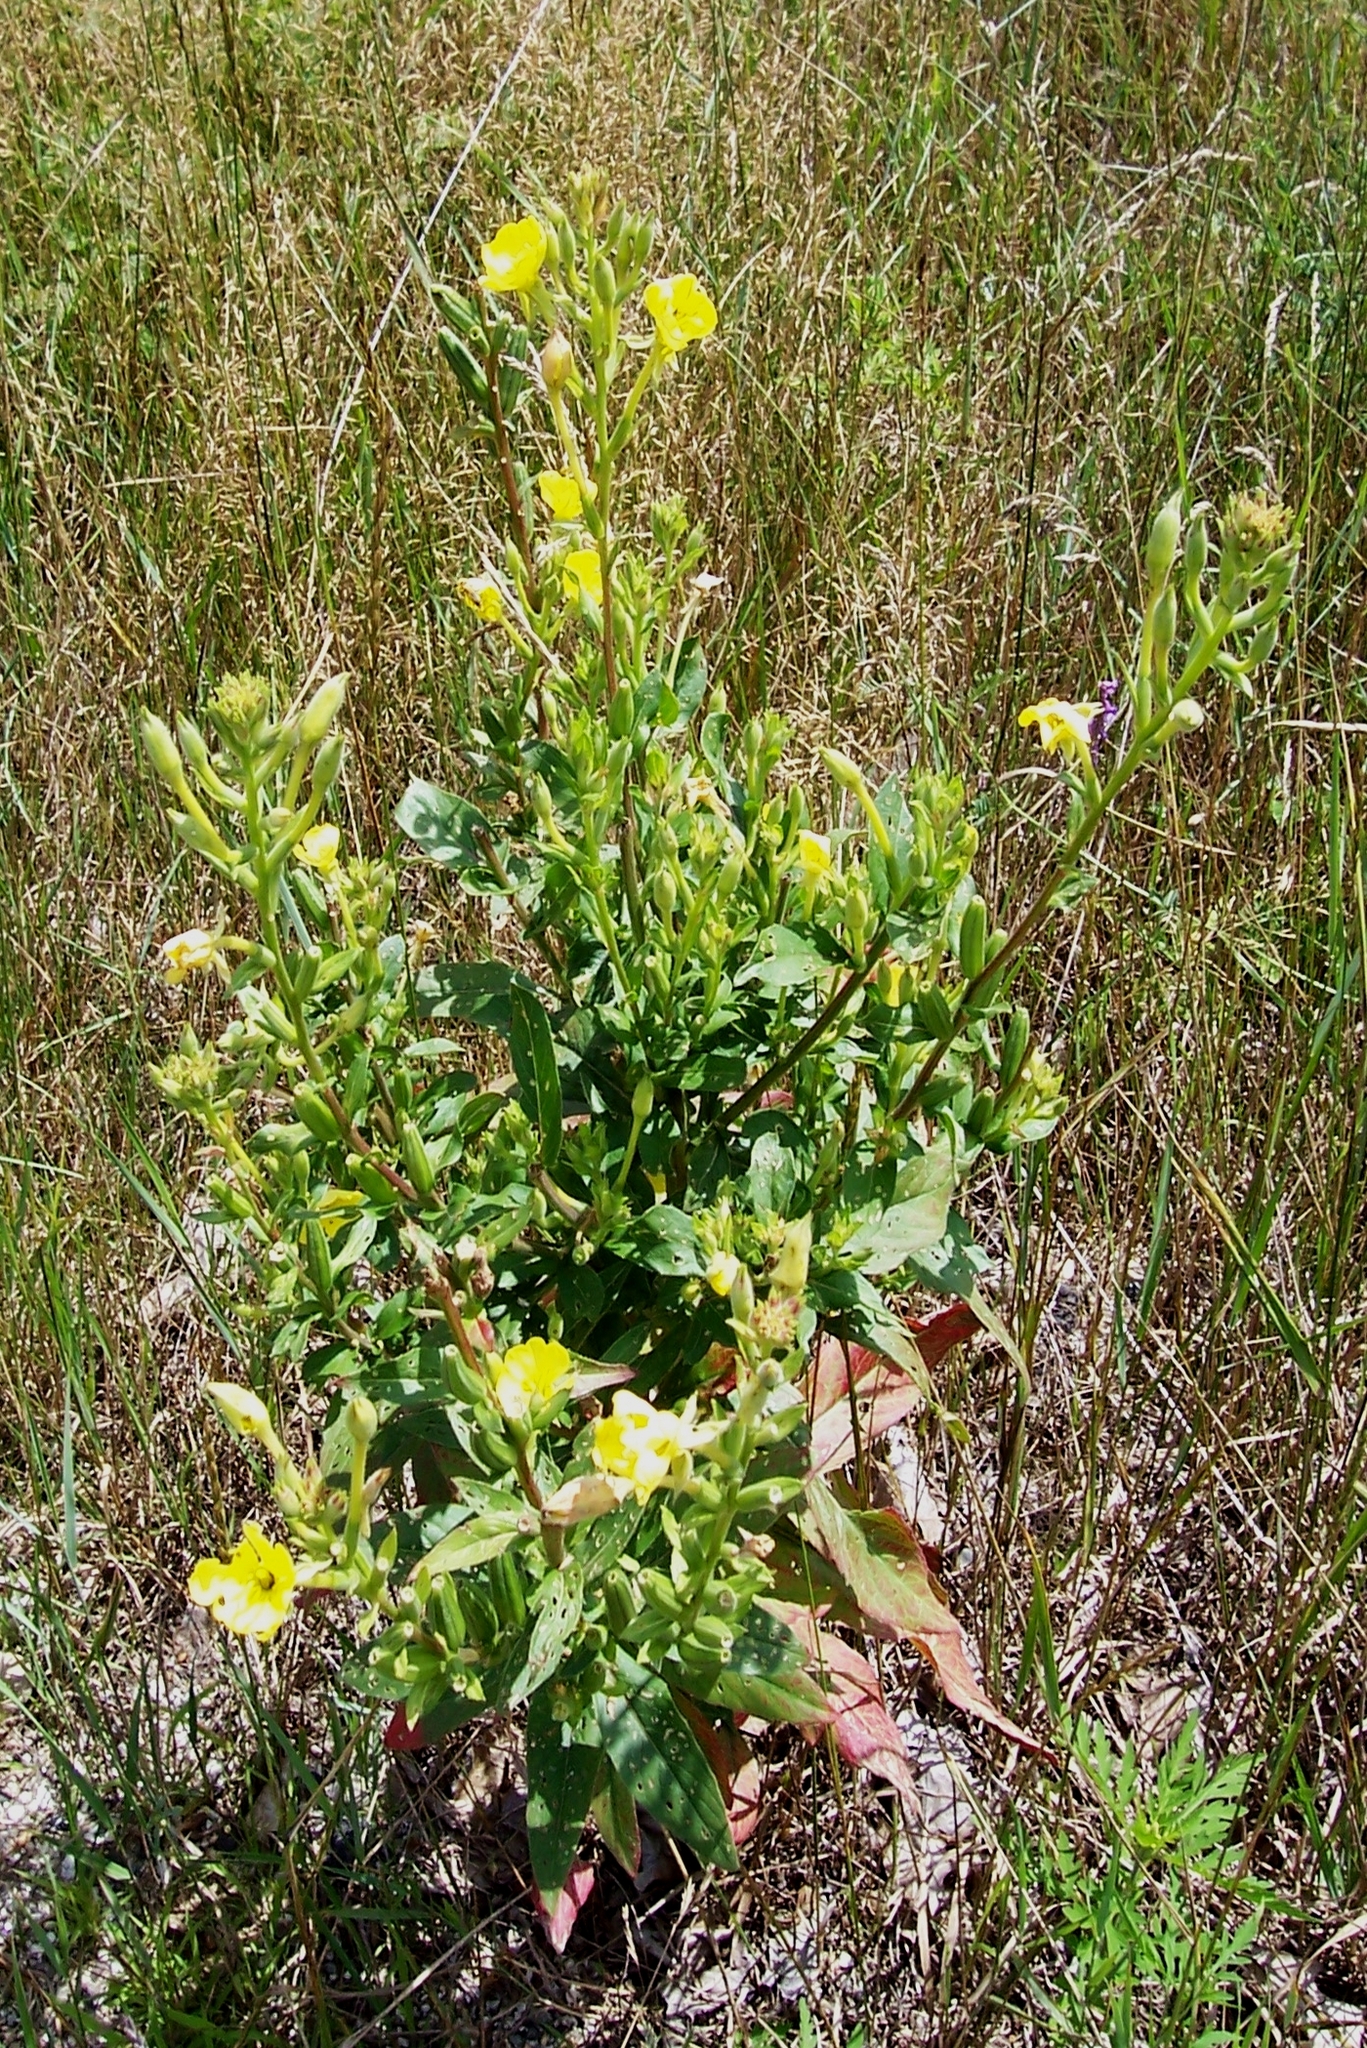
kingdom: Plantae
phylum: Tracheophyta
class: Magnoliopsida
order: Myrtales
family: Onagraceae
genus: Oenothera
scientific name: Oenothera biennis
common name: Common evening-primrose
